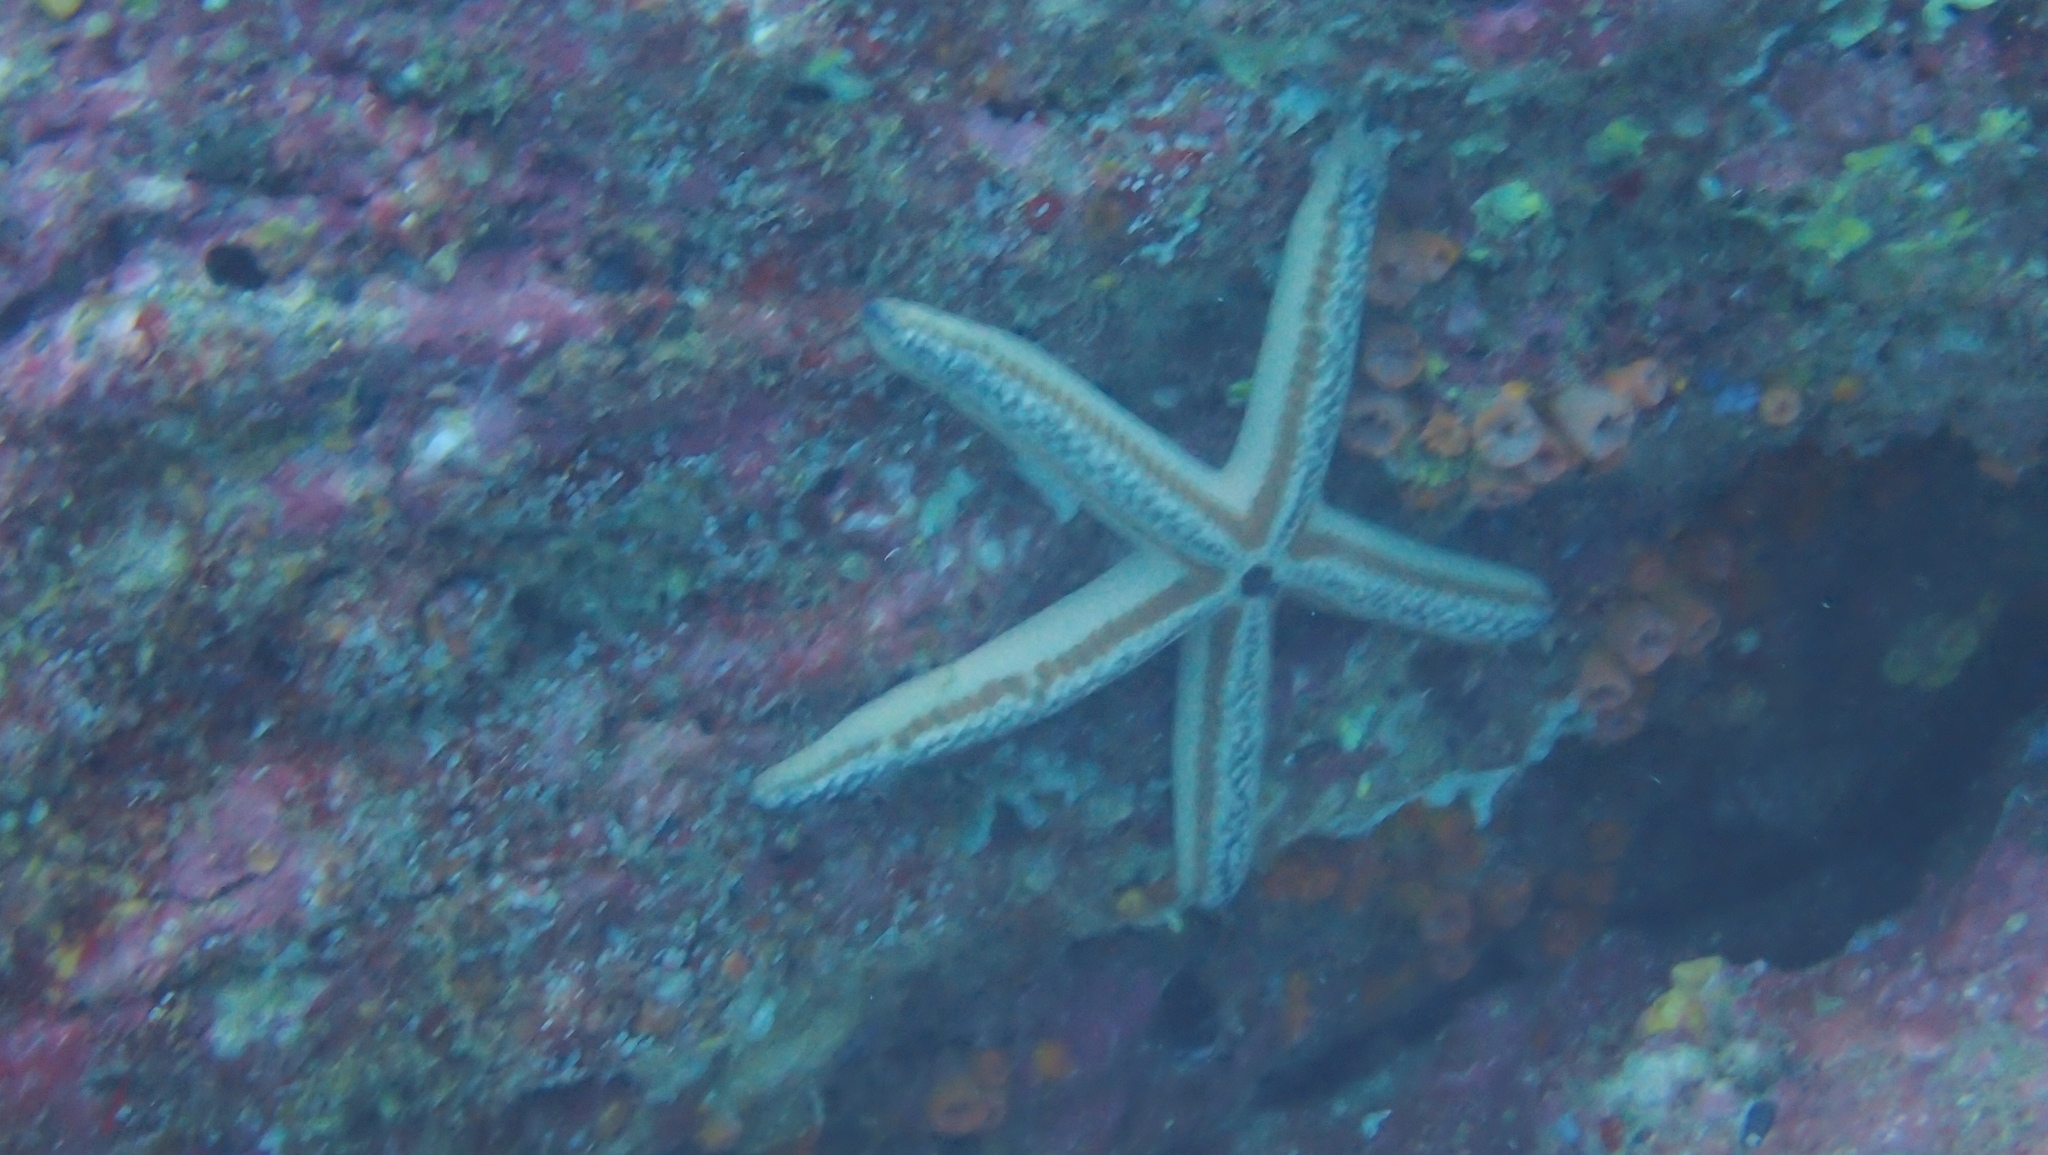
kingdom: Animalia
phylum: Echinodermata
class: Asteroidea
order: Valvatida
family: Ophidiasteridae
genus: Phataria
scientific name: Phataria unifascialis
